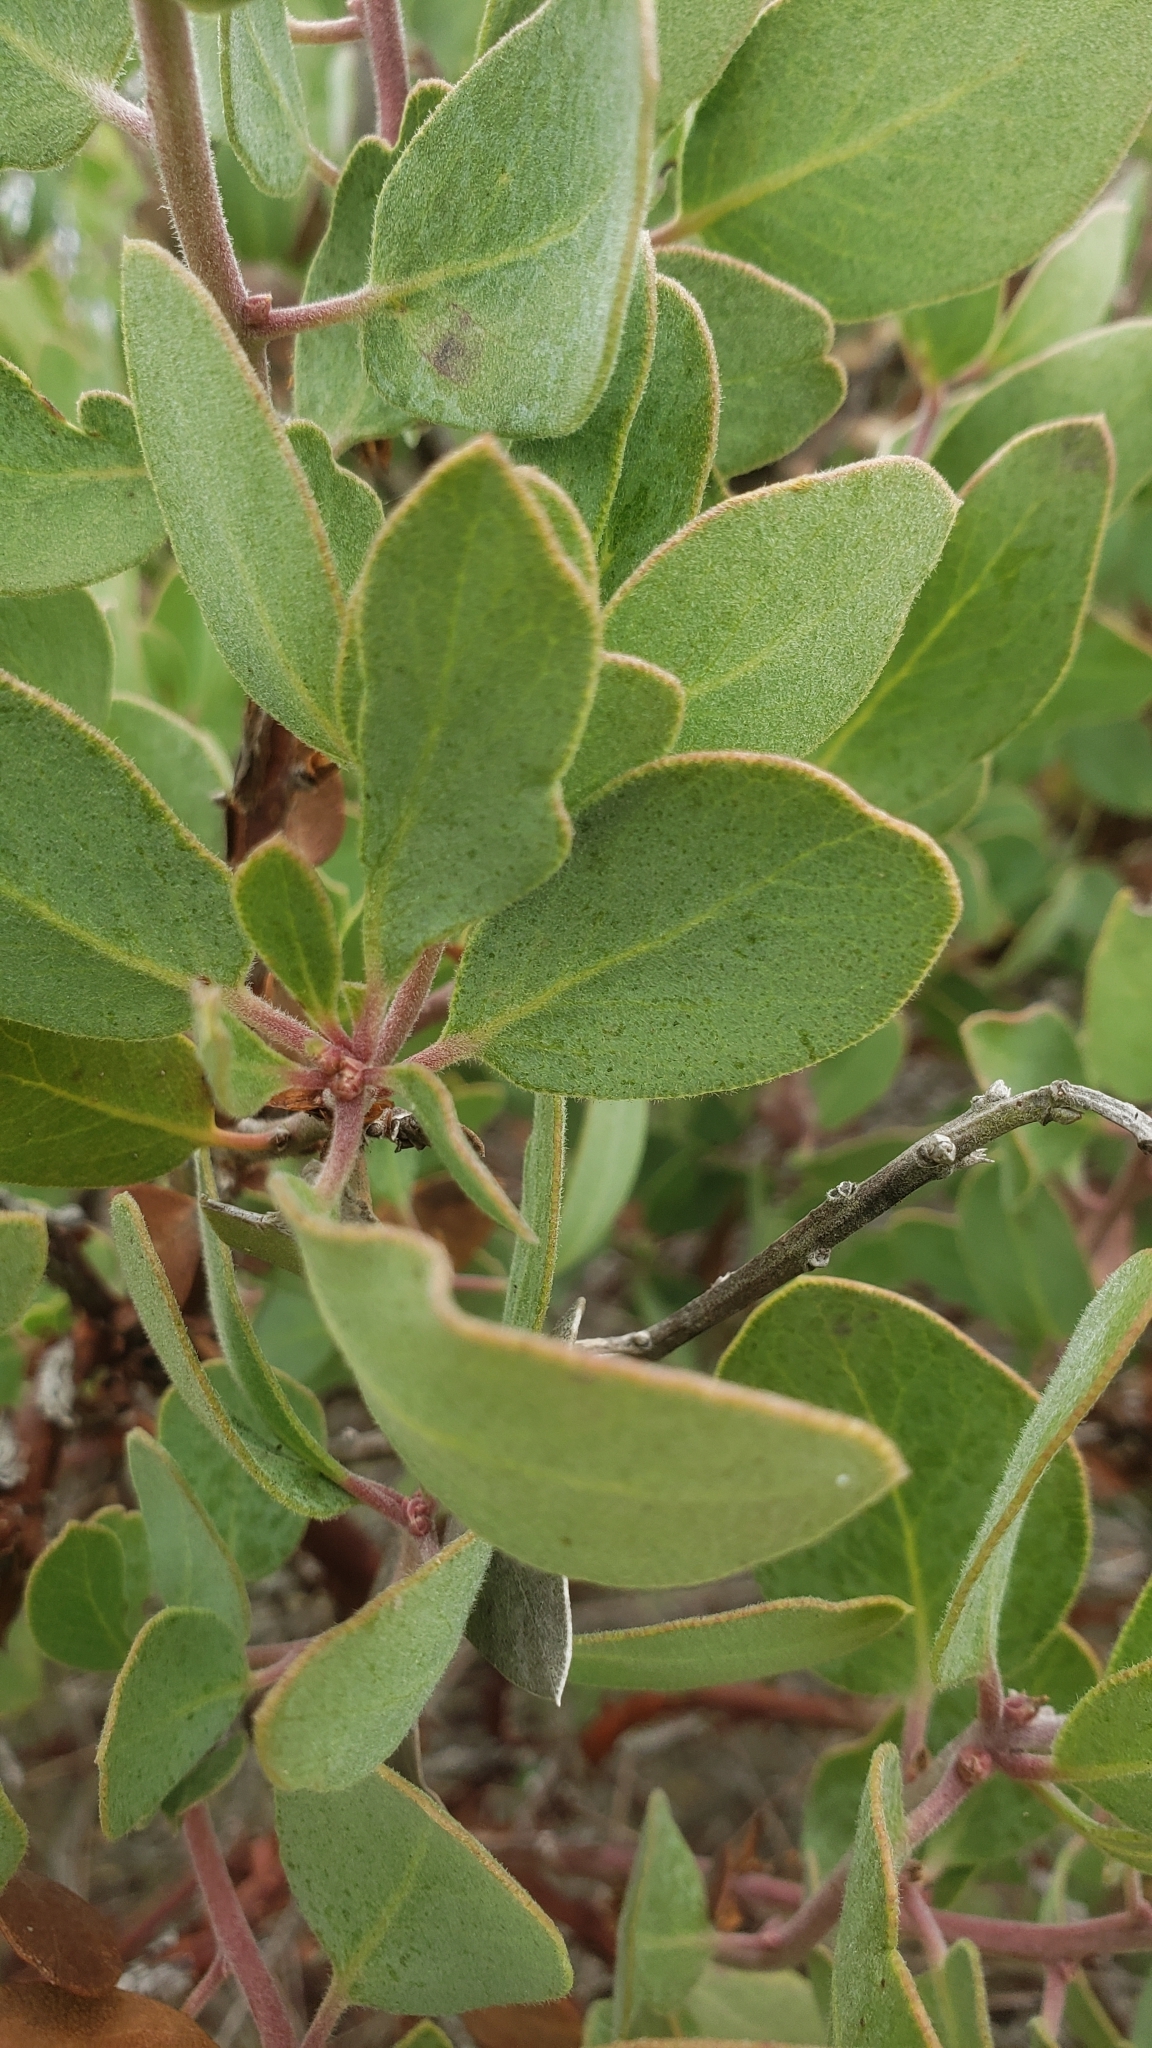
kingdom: Plantae
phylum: Tracheophyta
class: Magnoliopsida
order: Ericales
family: Ericaceae
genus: Arctostaphylos
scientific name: Arctostaphylos glandulosa
